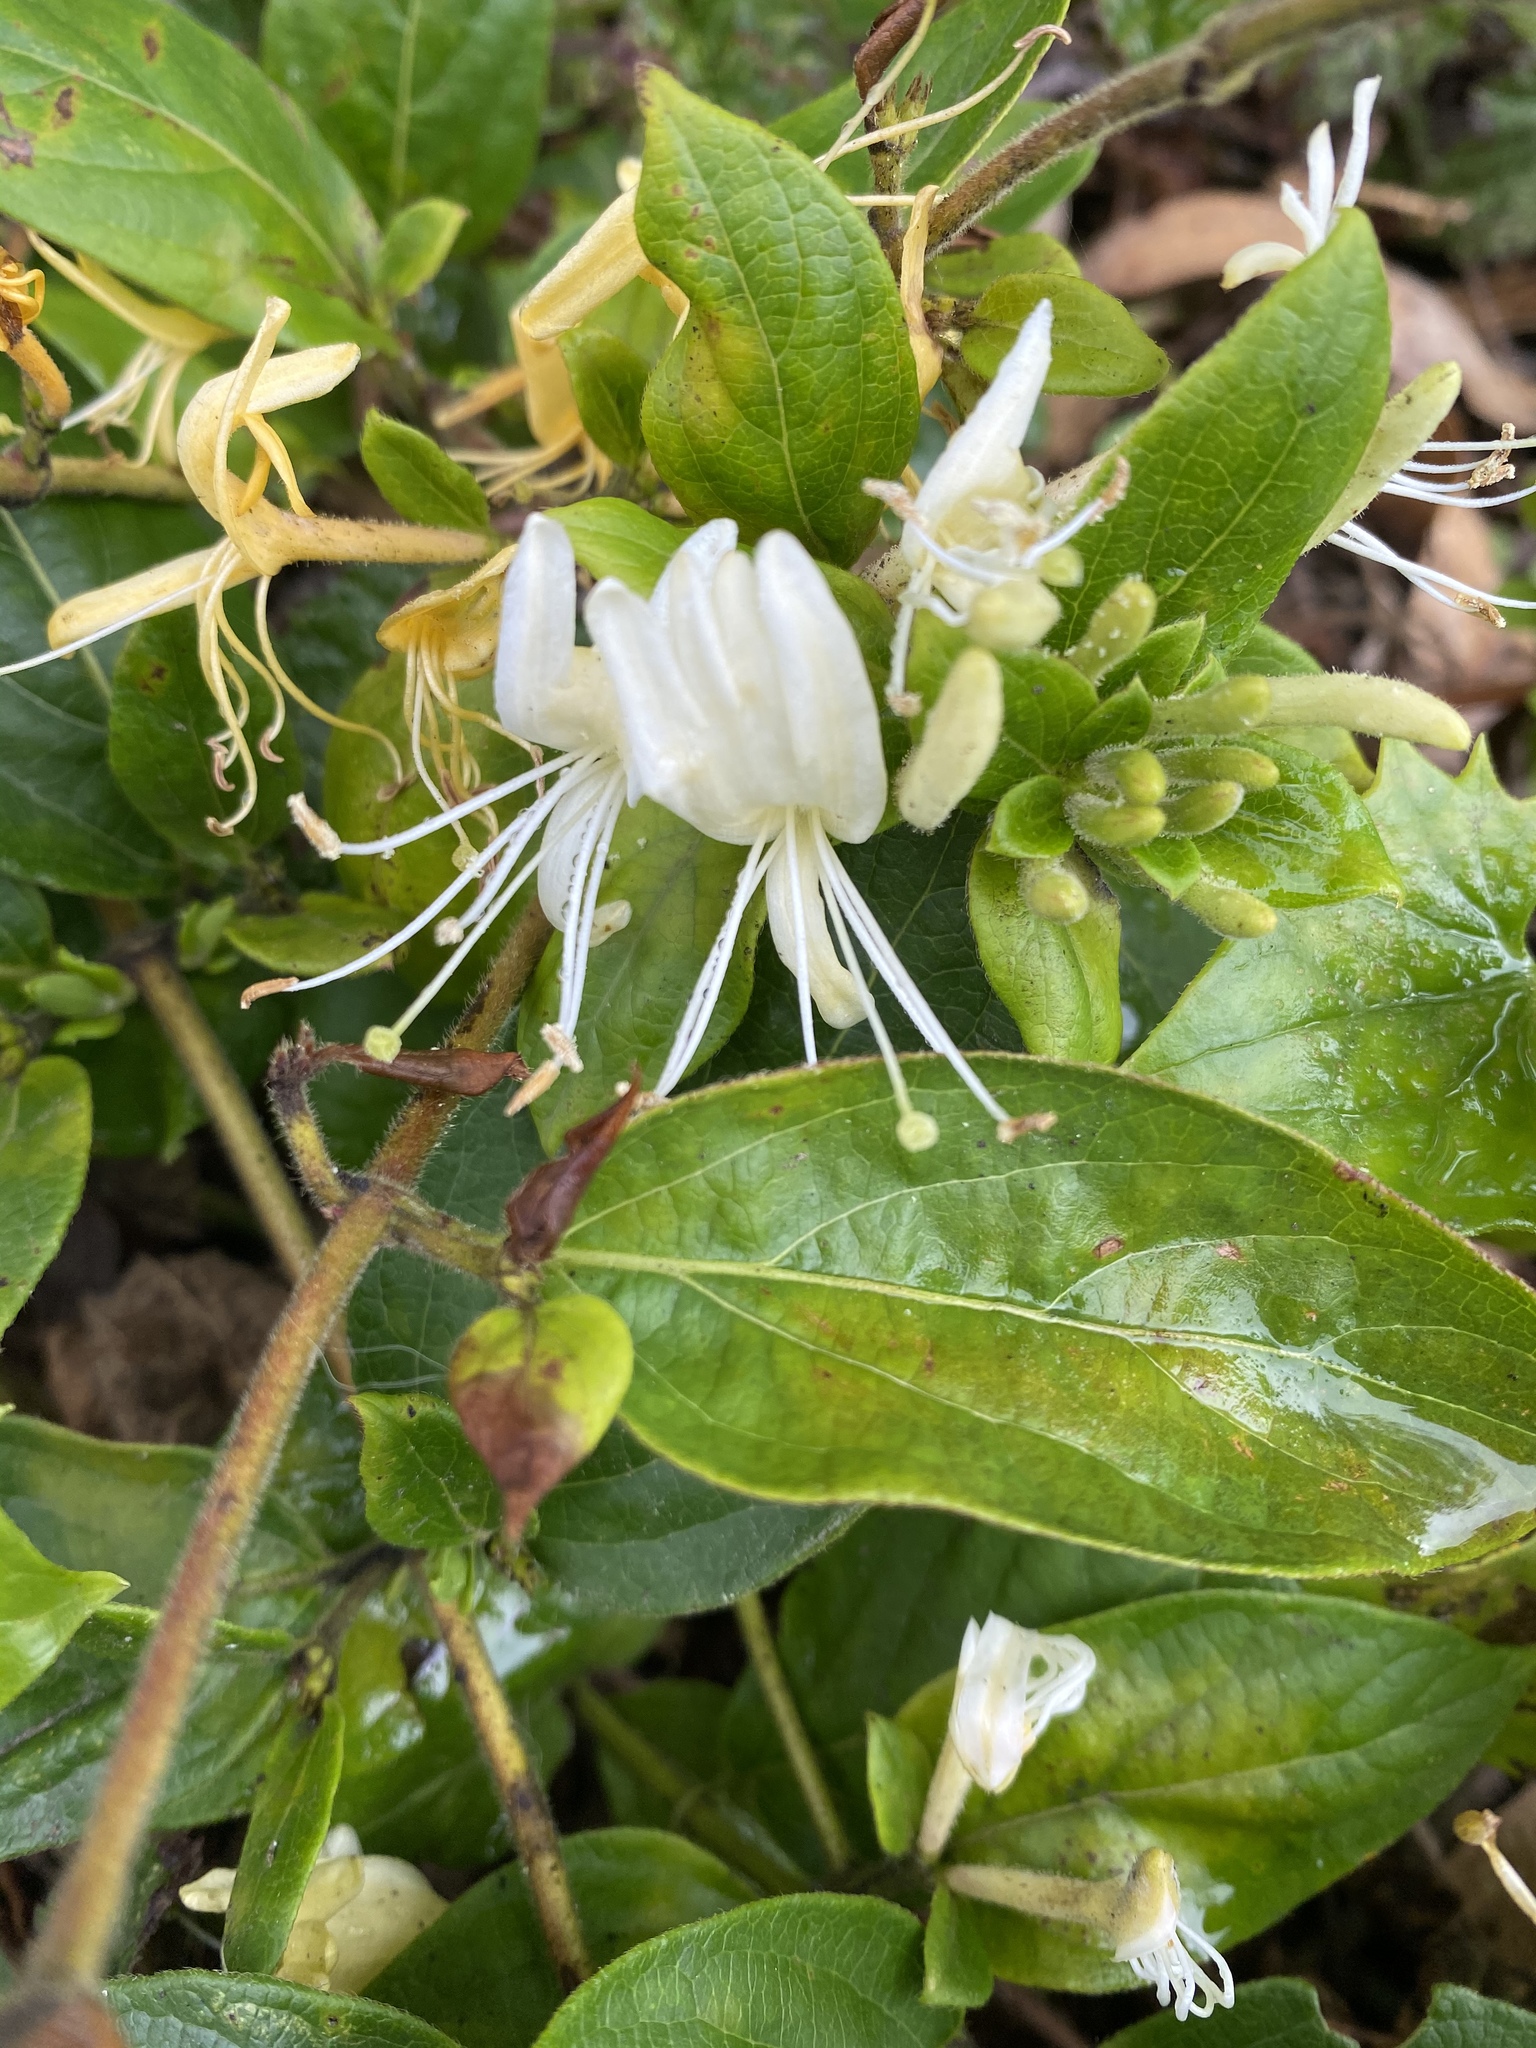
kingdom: Plantae
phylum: Tracheophyta
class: Magnoliopsida
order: Dipsacales
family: Caprifoliaceae
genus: Lonicera
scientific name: Lonicera japonica
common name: Japanese honeysuckle
